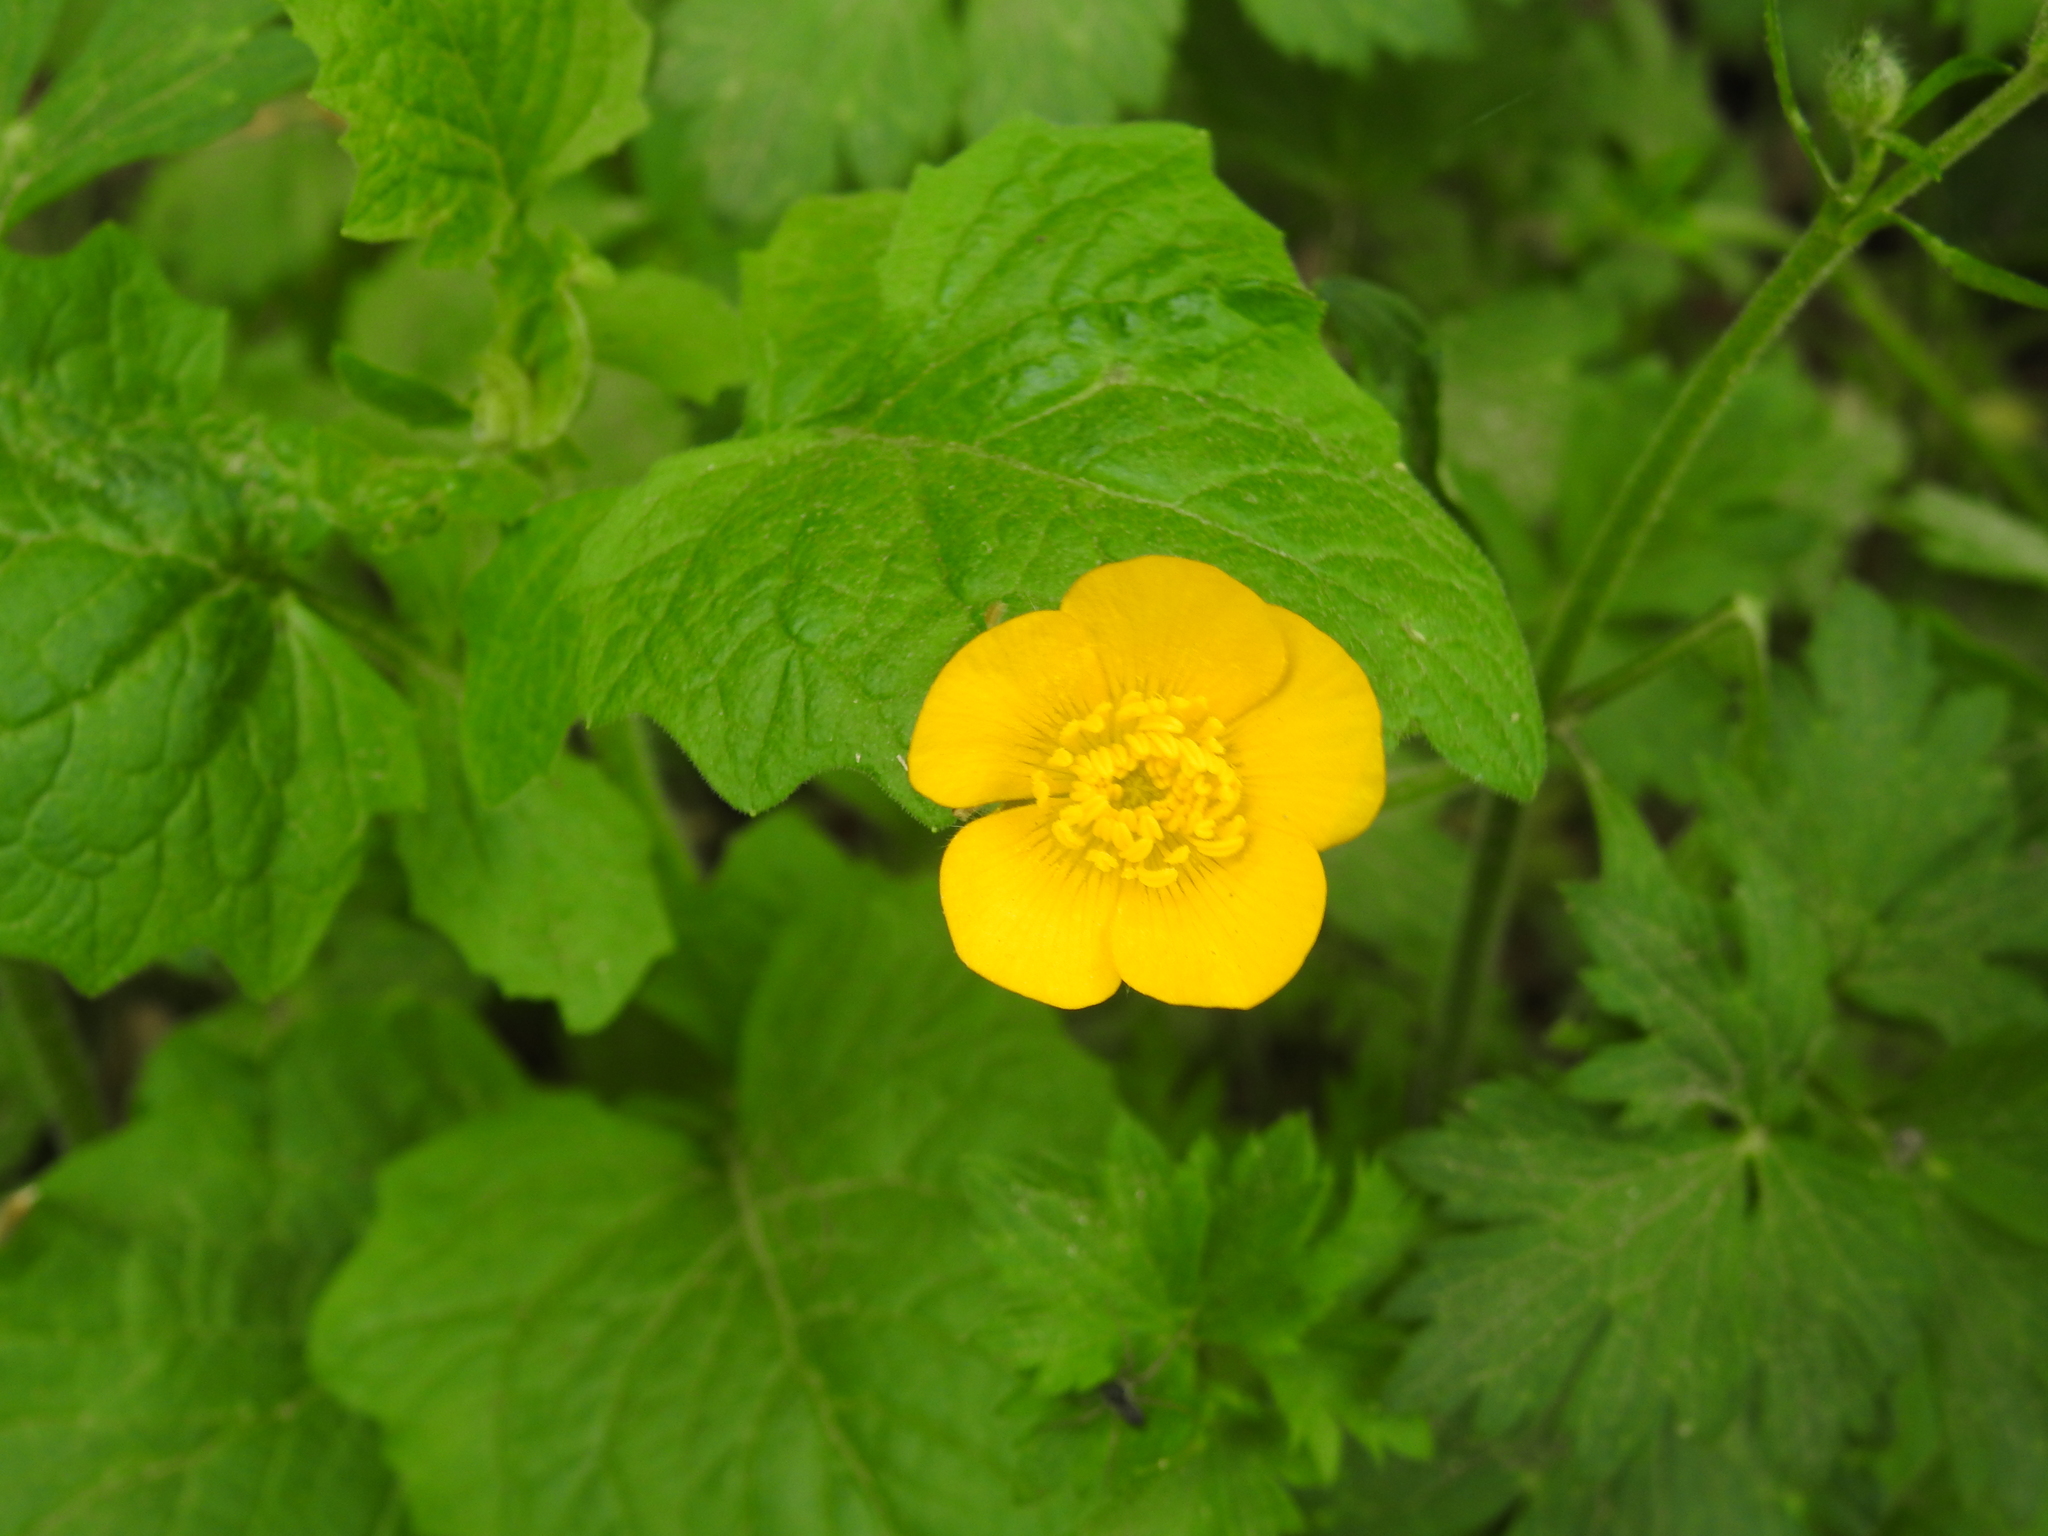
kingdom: Plantae
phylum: Tracheophyta
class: Magnoliopsida
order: Ranunculales
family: Ranunculaceae
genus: Ranunculus
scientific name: Ranunculus repens
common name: Creeping buttercup
